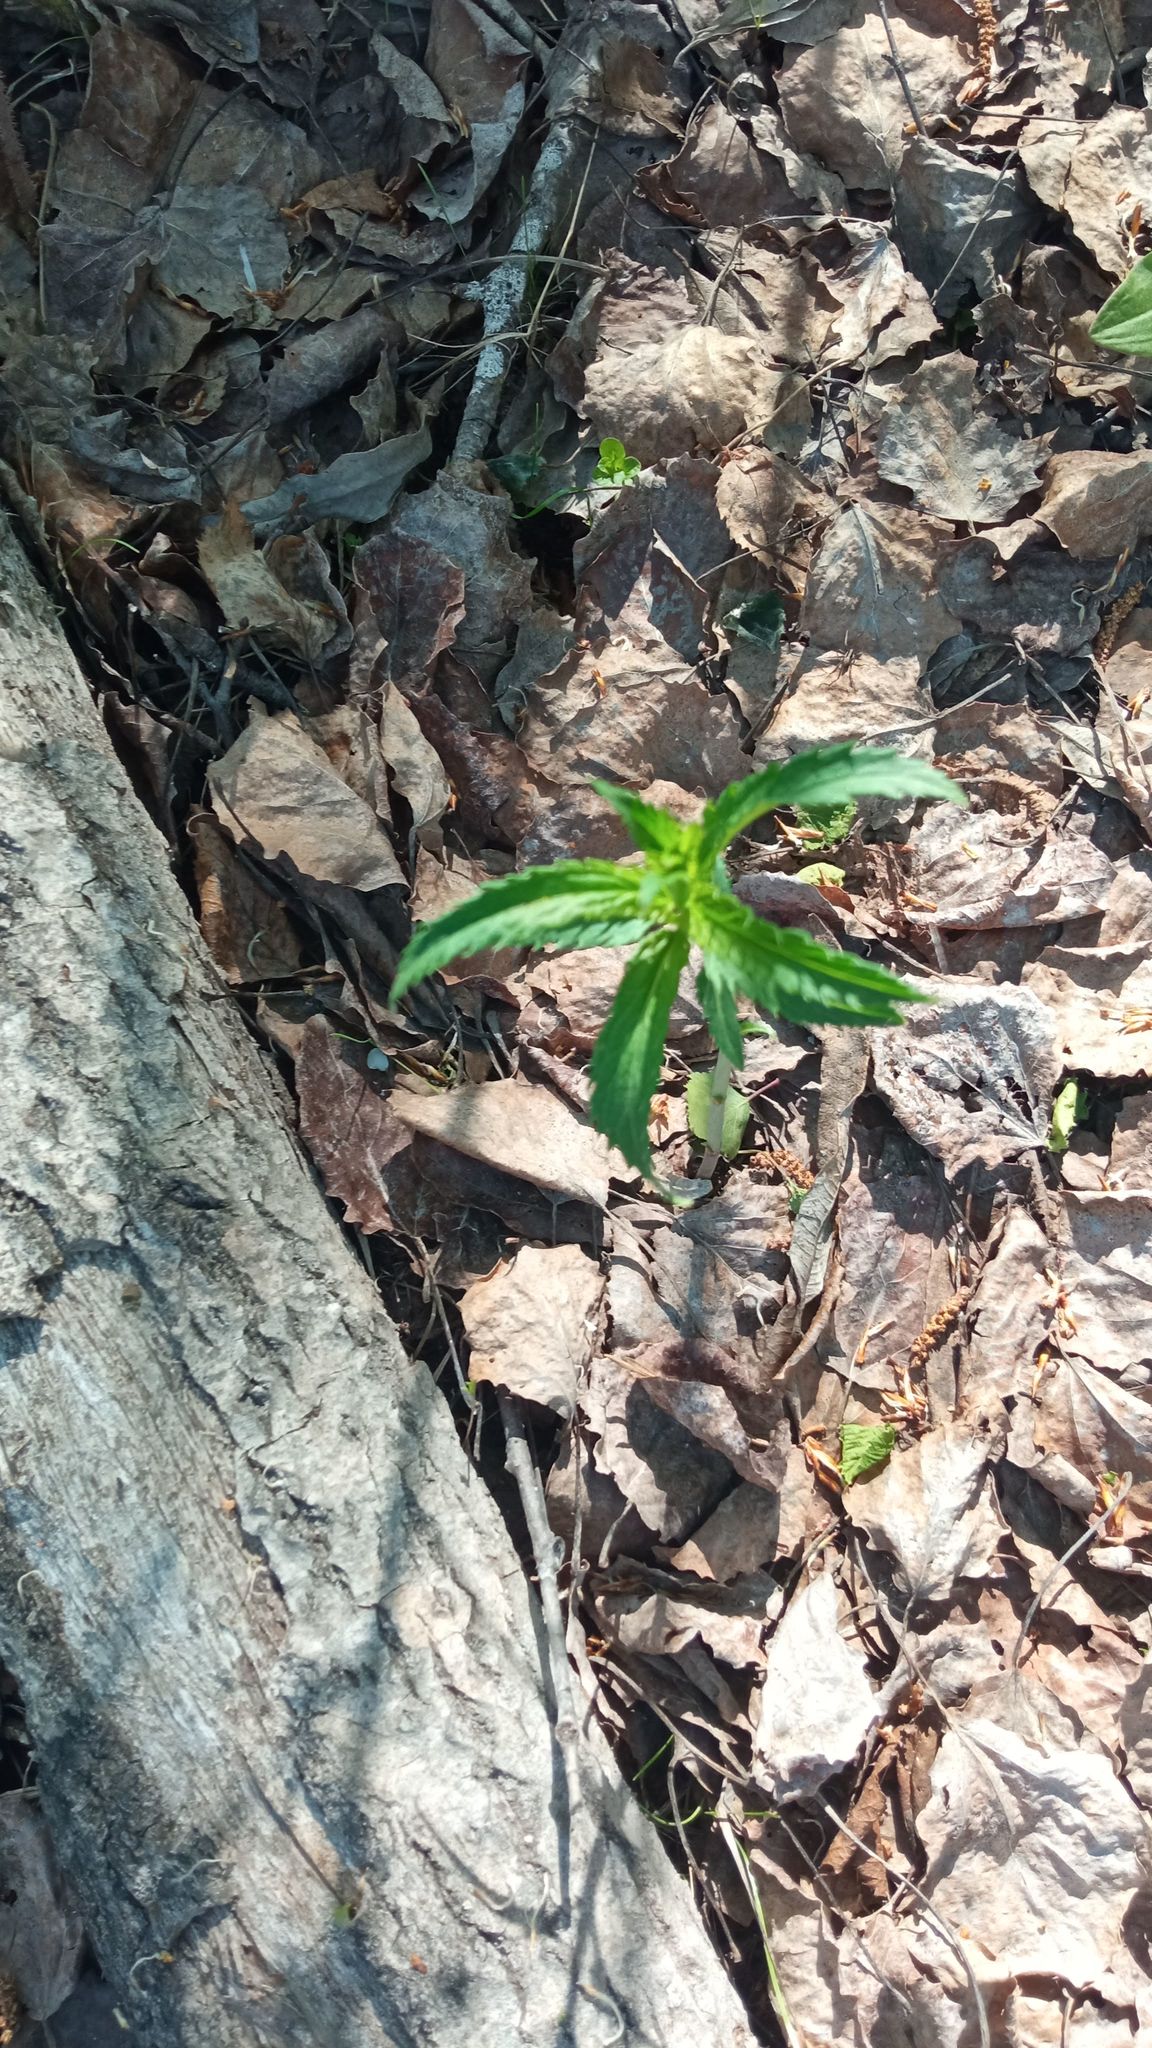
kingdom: Plantae
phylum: Tracheophyta
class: Magnoliopsida
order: Lamiales
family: Plantaginaceae
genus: Veronica
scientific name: Veronica longifolia
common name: Garden speedwell
